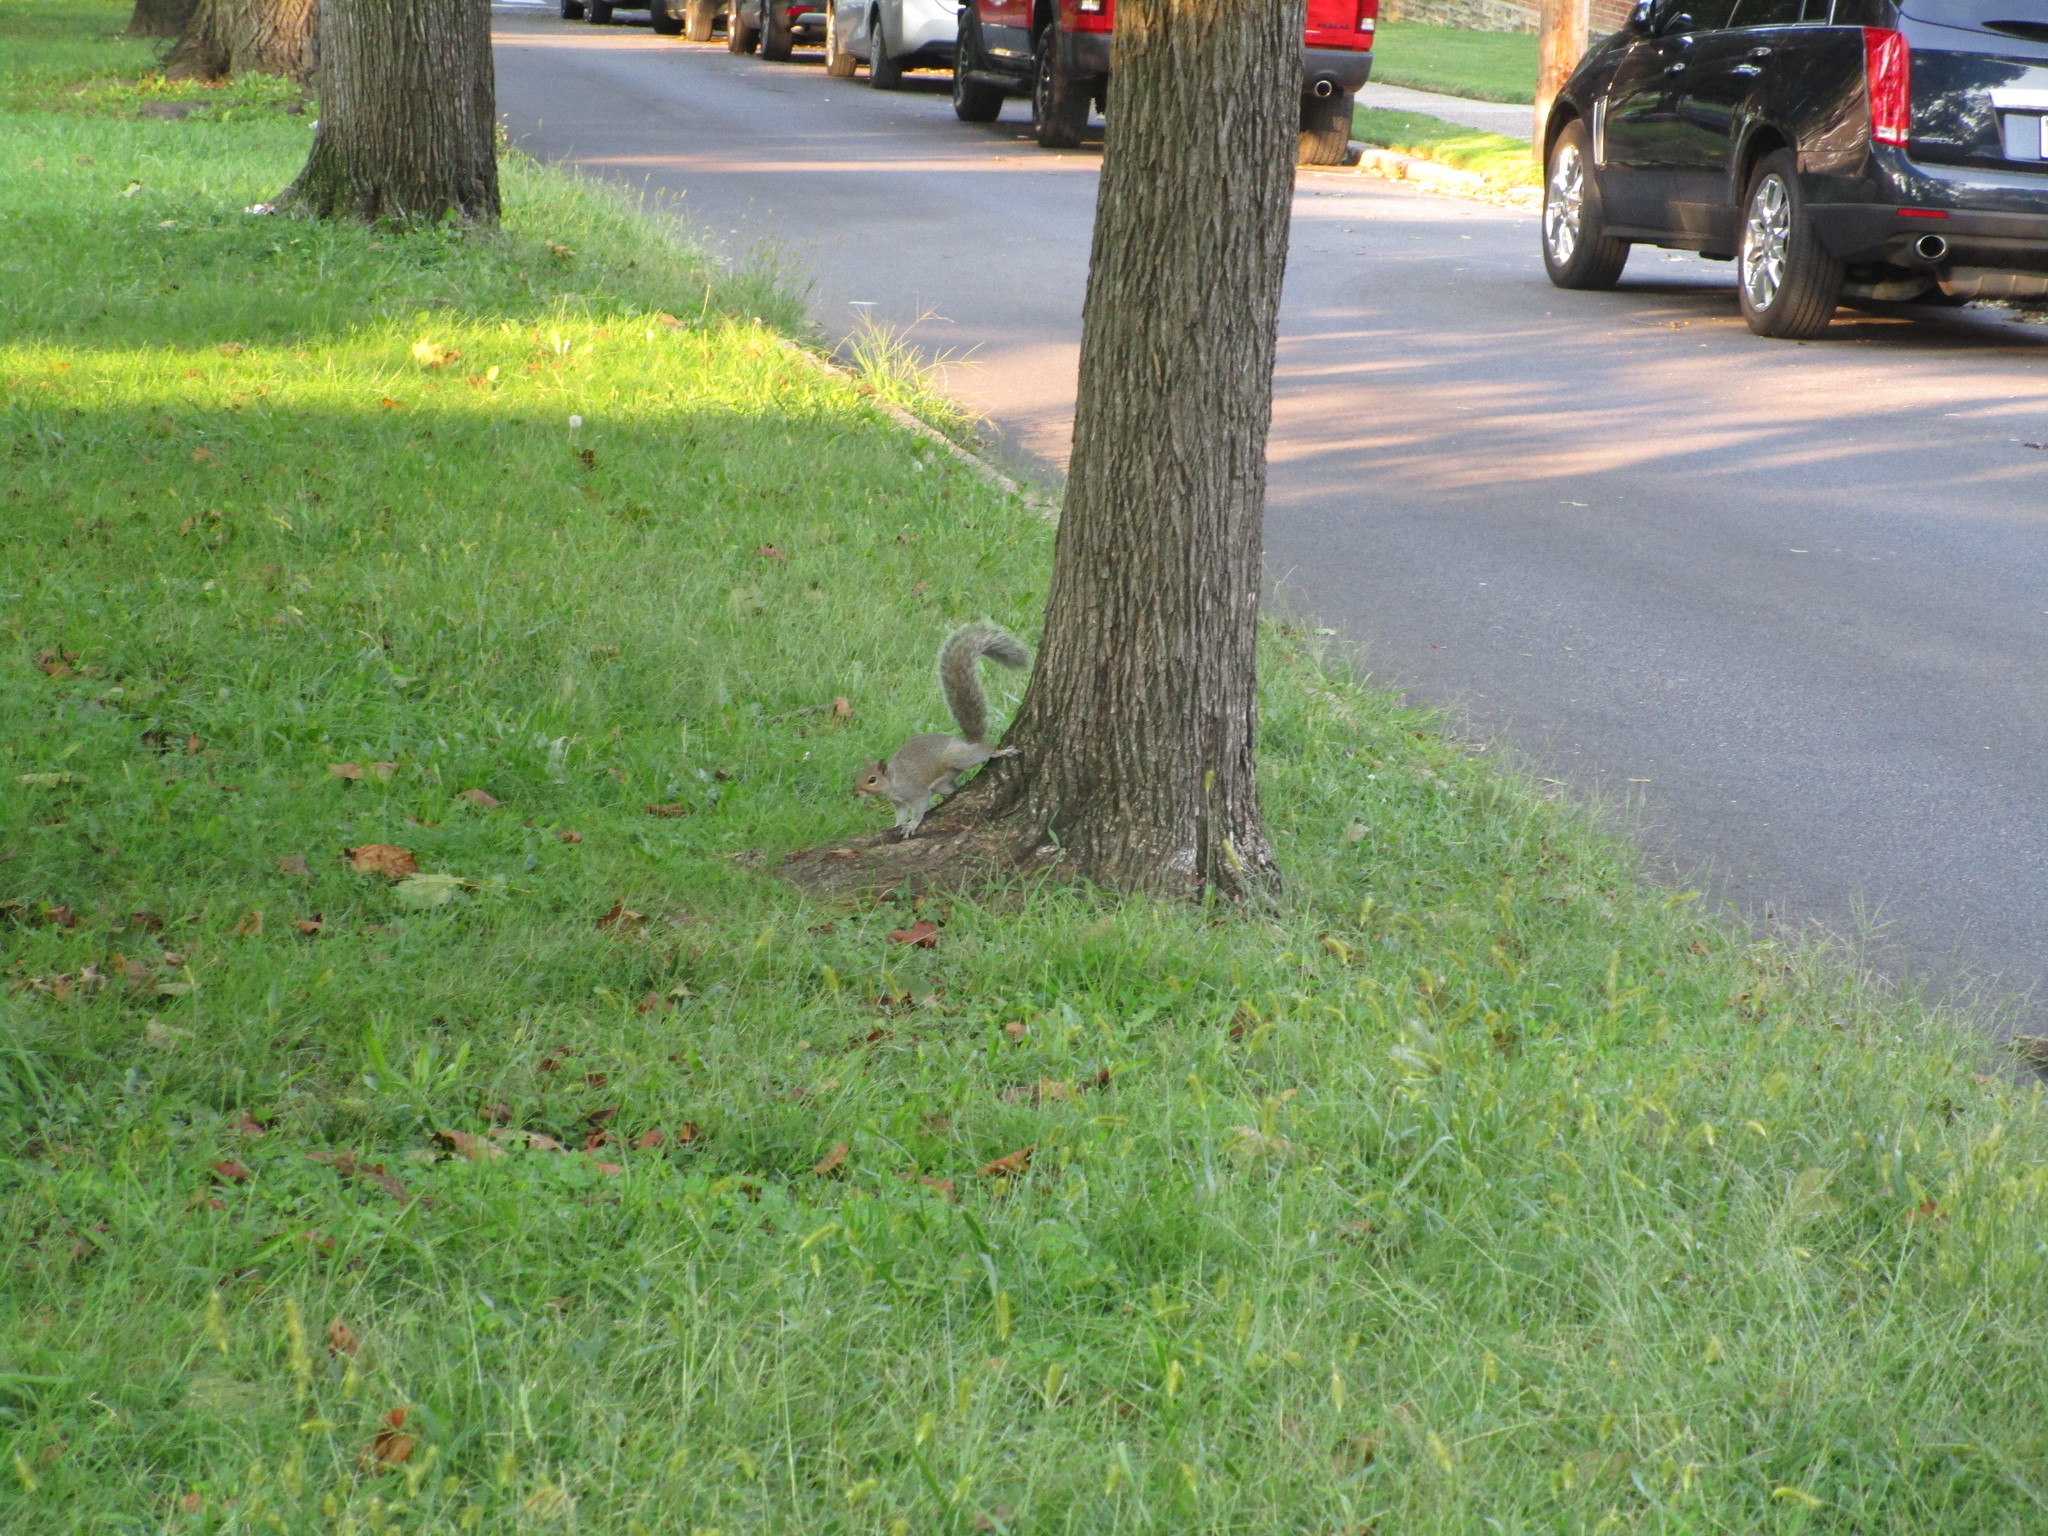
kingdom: Animalia
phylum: Chordata
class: Mammalia
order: Rodentia
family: Sciuridae
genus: Sciurus
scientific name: Sciurus carolinensis
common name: Eastern gray squirrel
